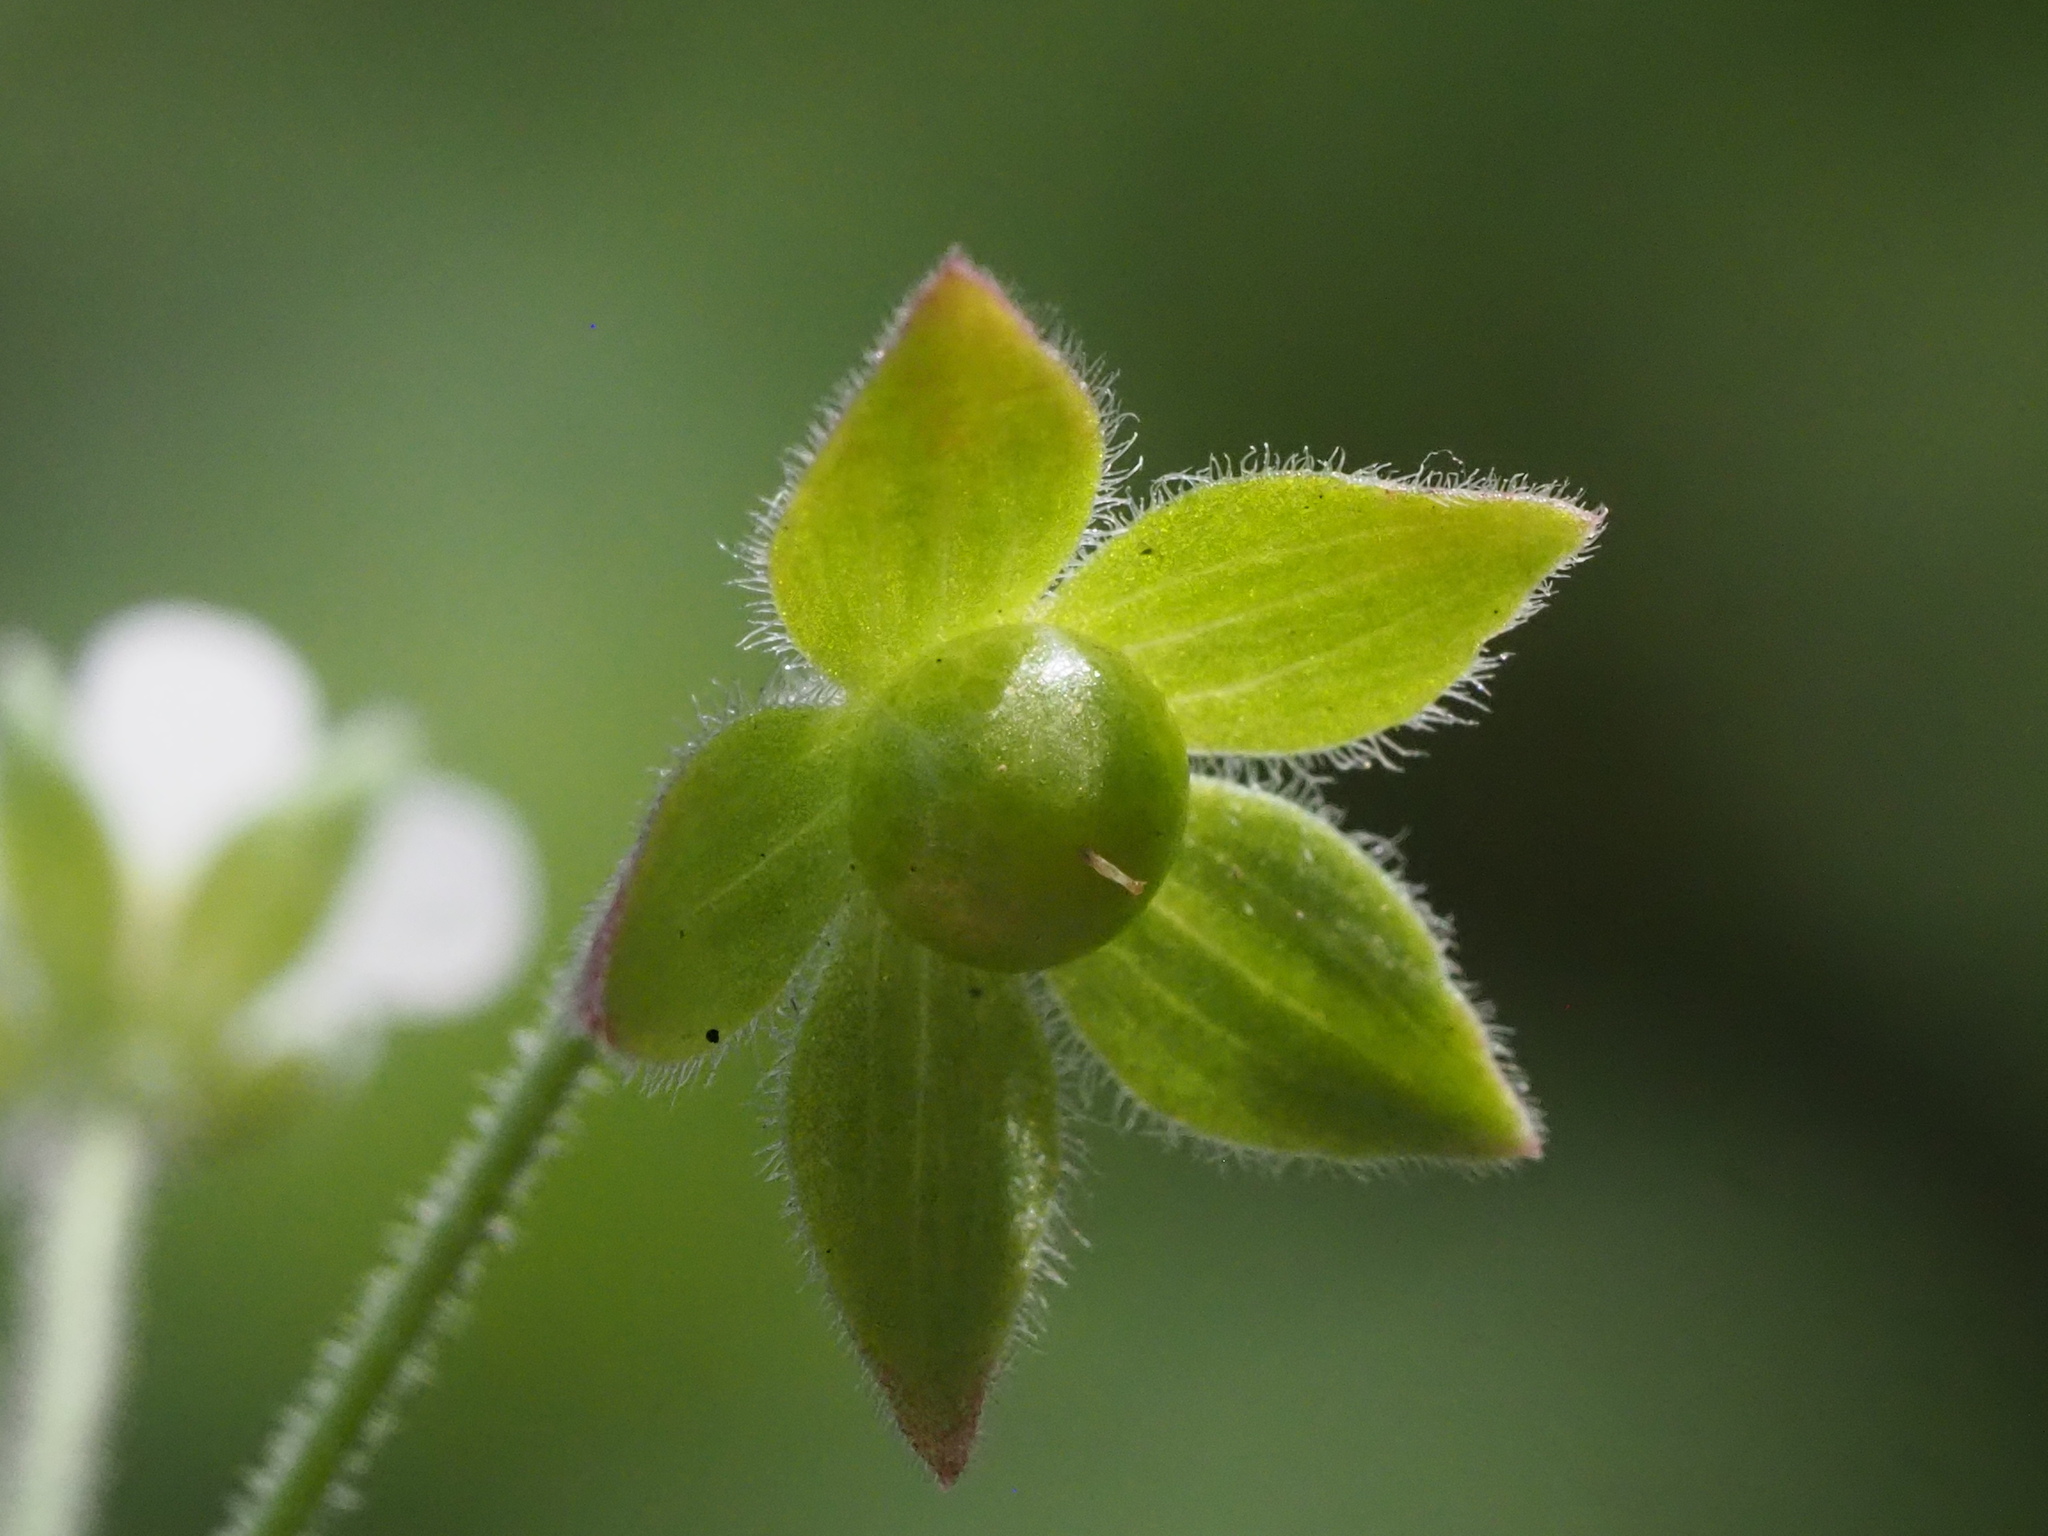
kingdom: Plantae
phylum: Tracheophyta
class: Magnoliopsida
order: Ericales
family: Primulaceae
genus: Androsace
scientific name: Androsace umbellata
